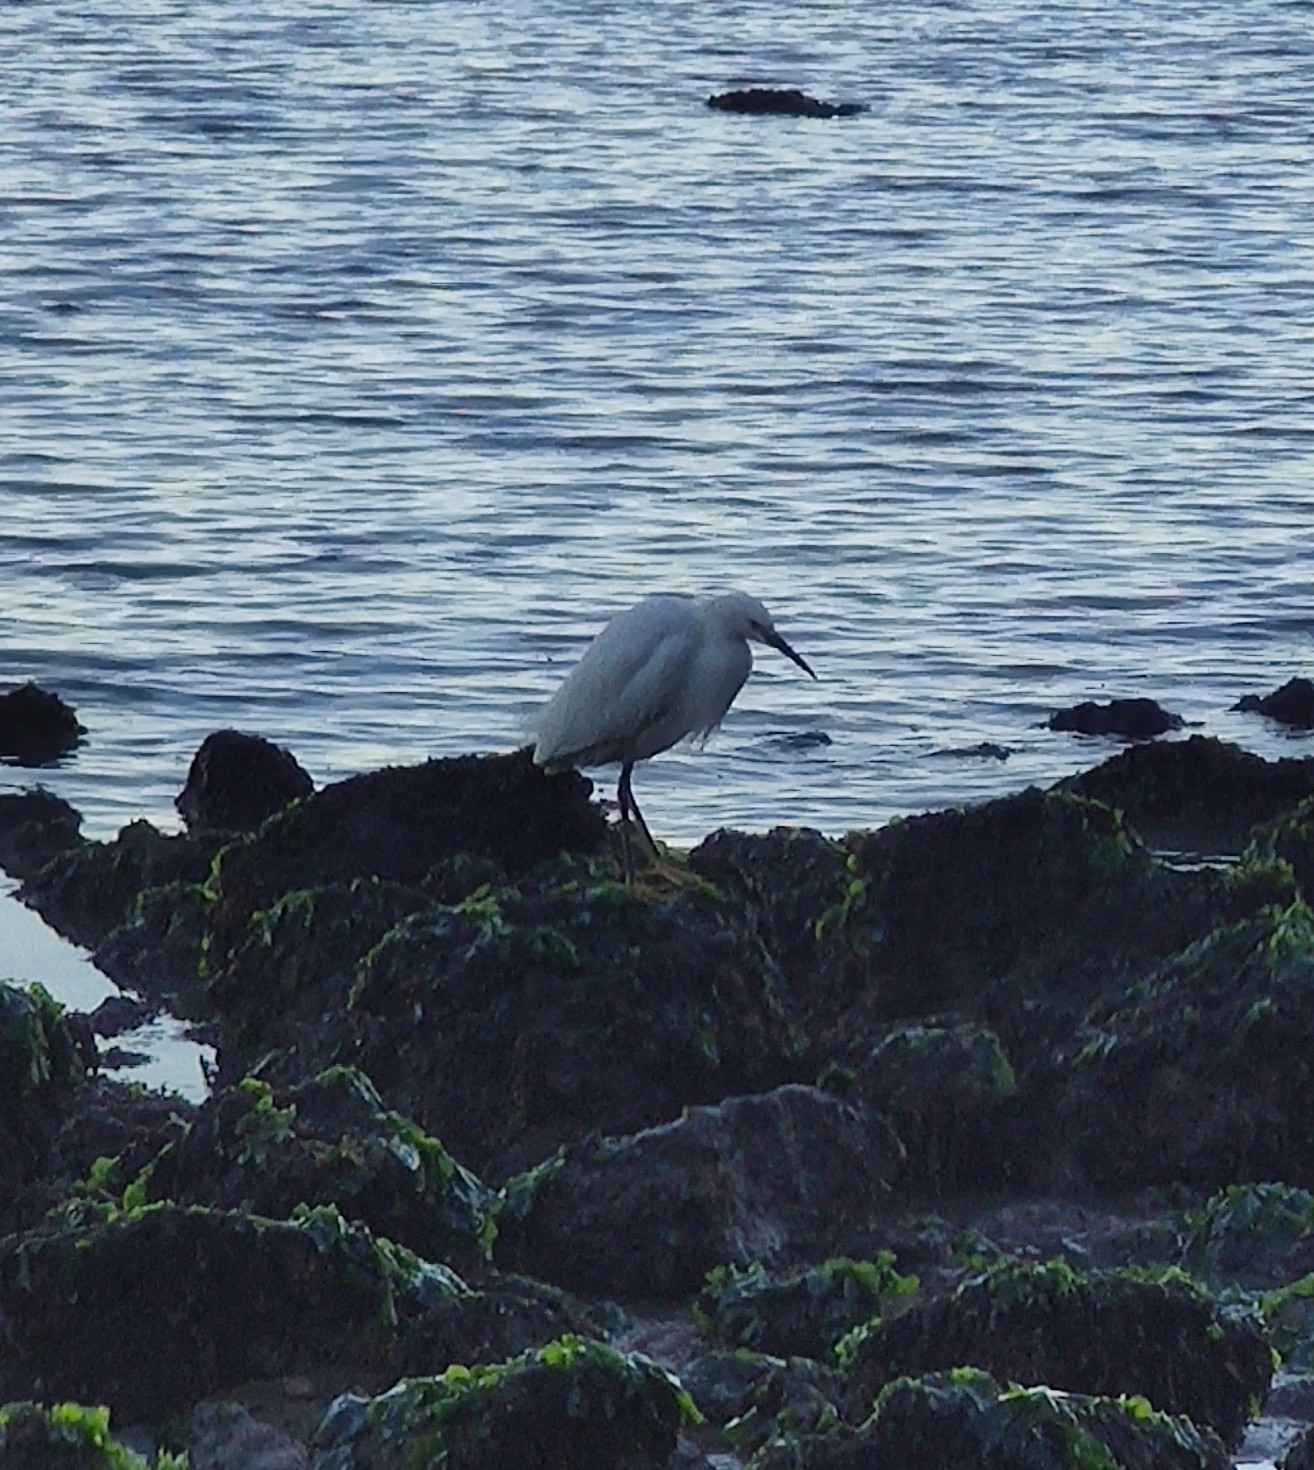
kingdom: Animalia
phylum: Chordata
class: Aves
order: Pelecaniformes
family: Ardeidae
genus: Egretta
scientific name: Egretta thula
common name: Snowy egret
